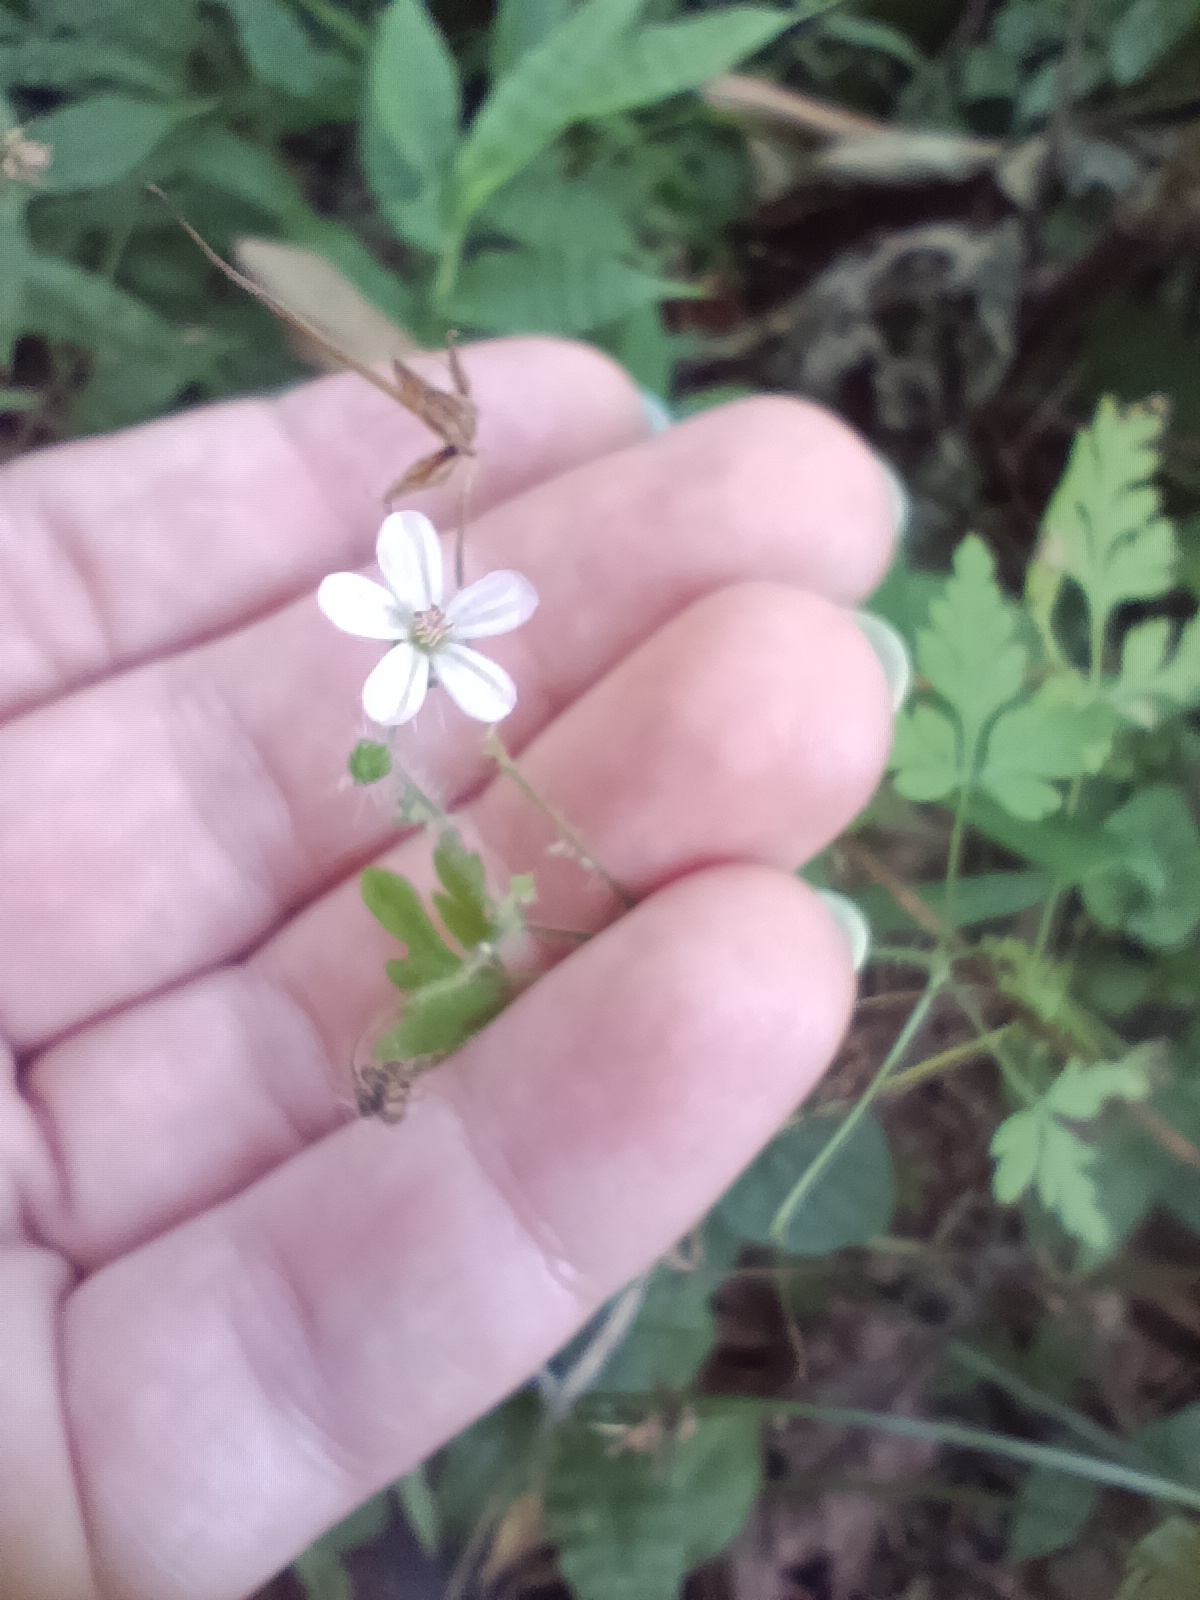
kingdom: Plantae
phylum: Tracheophyta
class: Magnoliopsida
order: Geraniales
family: Geraniaceae
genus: Geranium
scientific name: Geranium robertianum
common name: Herb-robert
